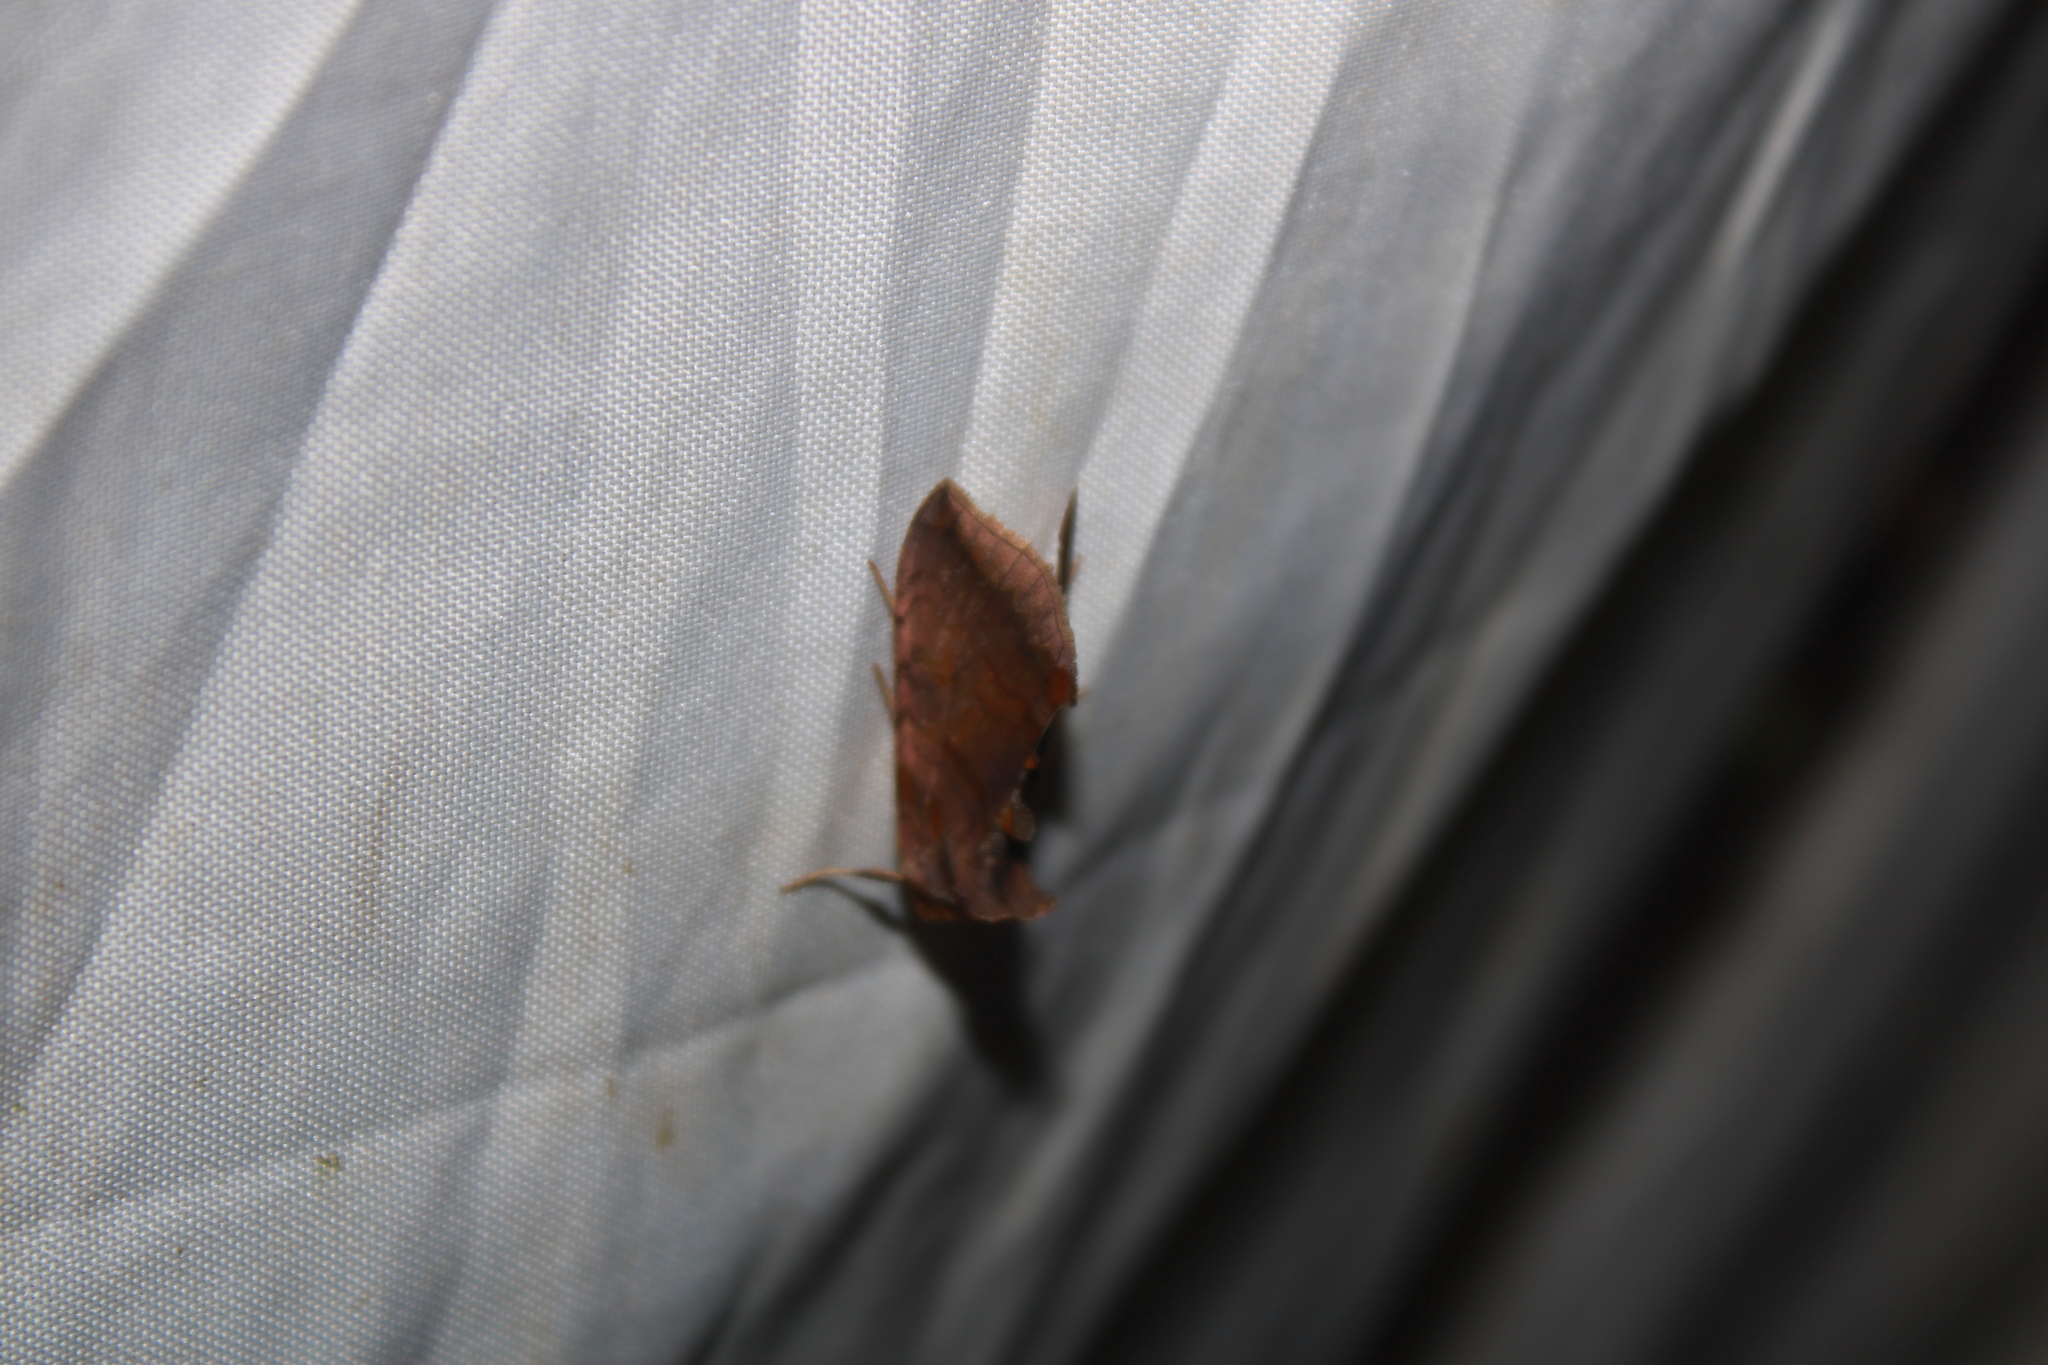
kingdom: Animalia
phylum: Arthropoda
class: Insecta
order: Lepidoptera
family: Noctuidae
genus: Allagrapha
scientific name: Allagrapha aerea
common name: Unspotted looper moth
